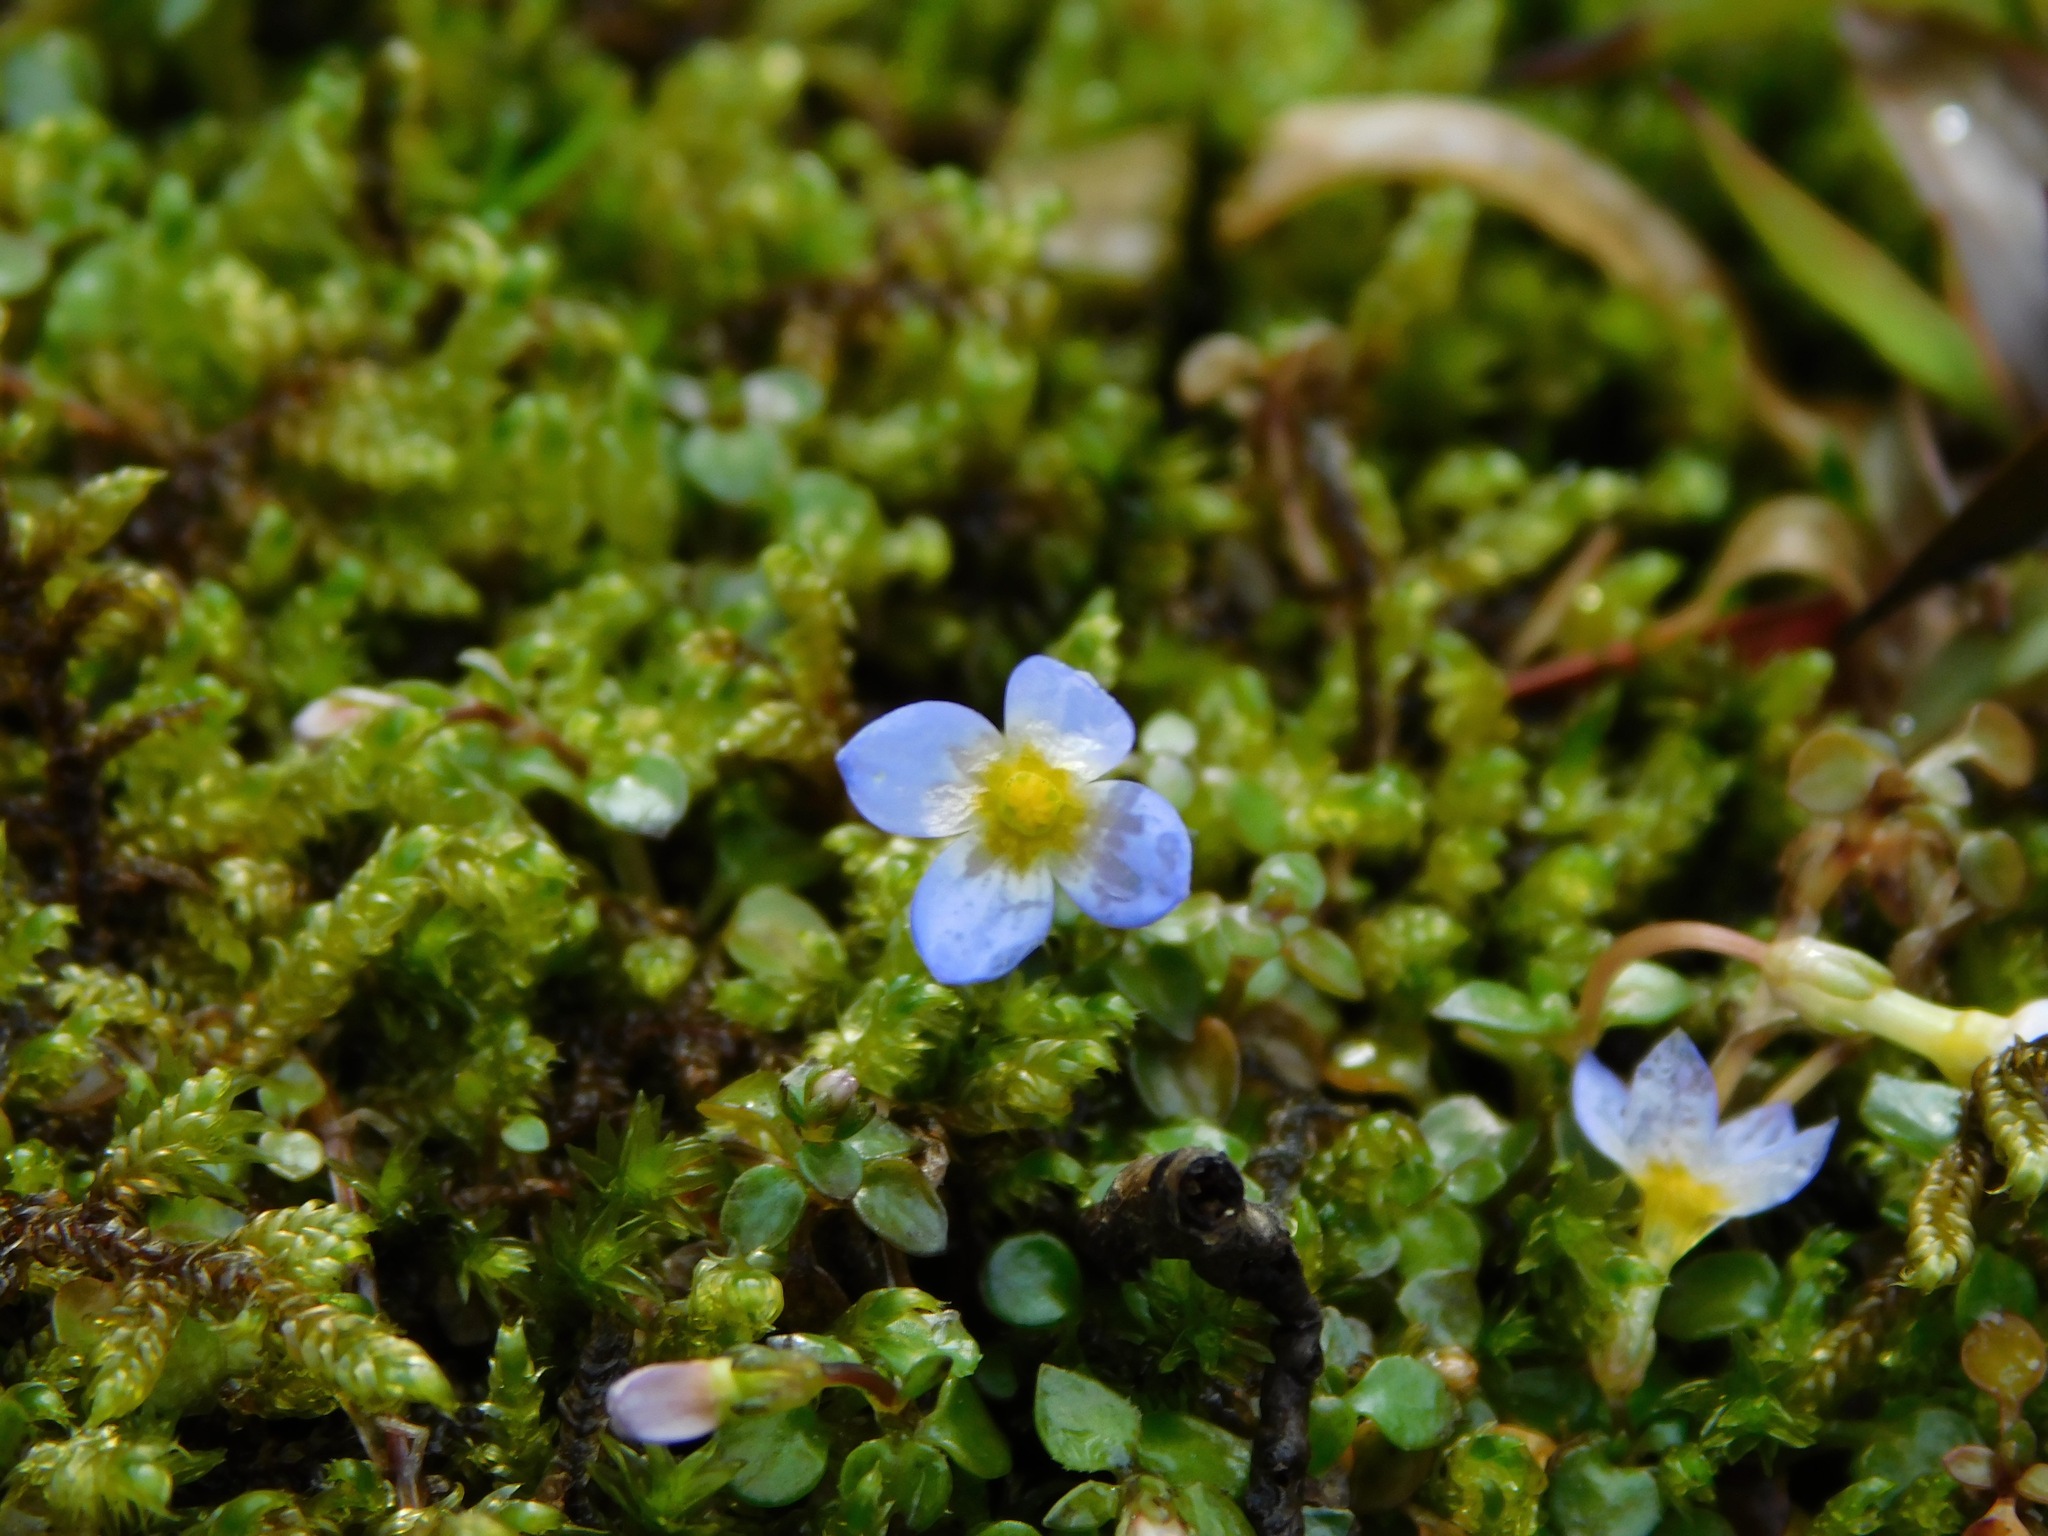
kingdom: Plantae
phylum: Tracheophyta
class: Magnoliopsida
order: Gentianales
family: Rubiaceae
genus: Houstonia
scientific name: Houstonia serpyllifolia
